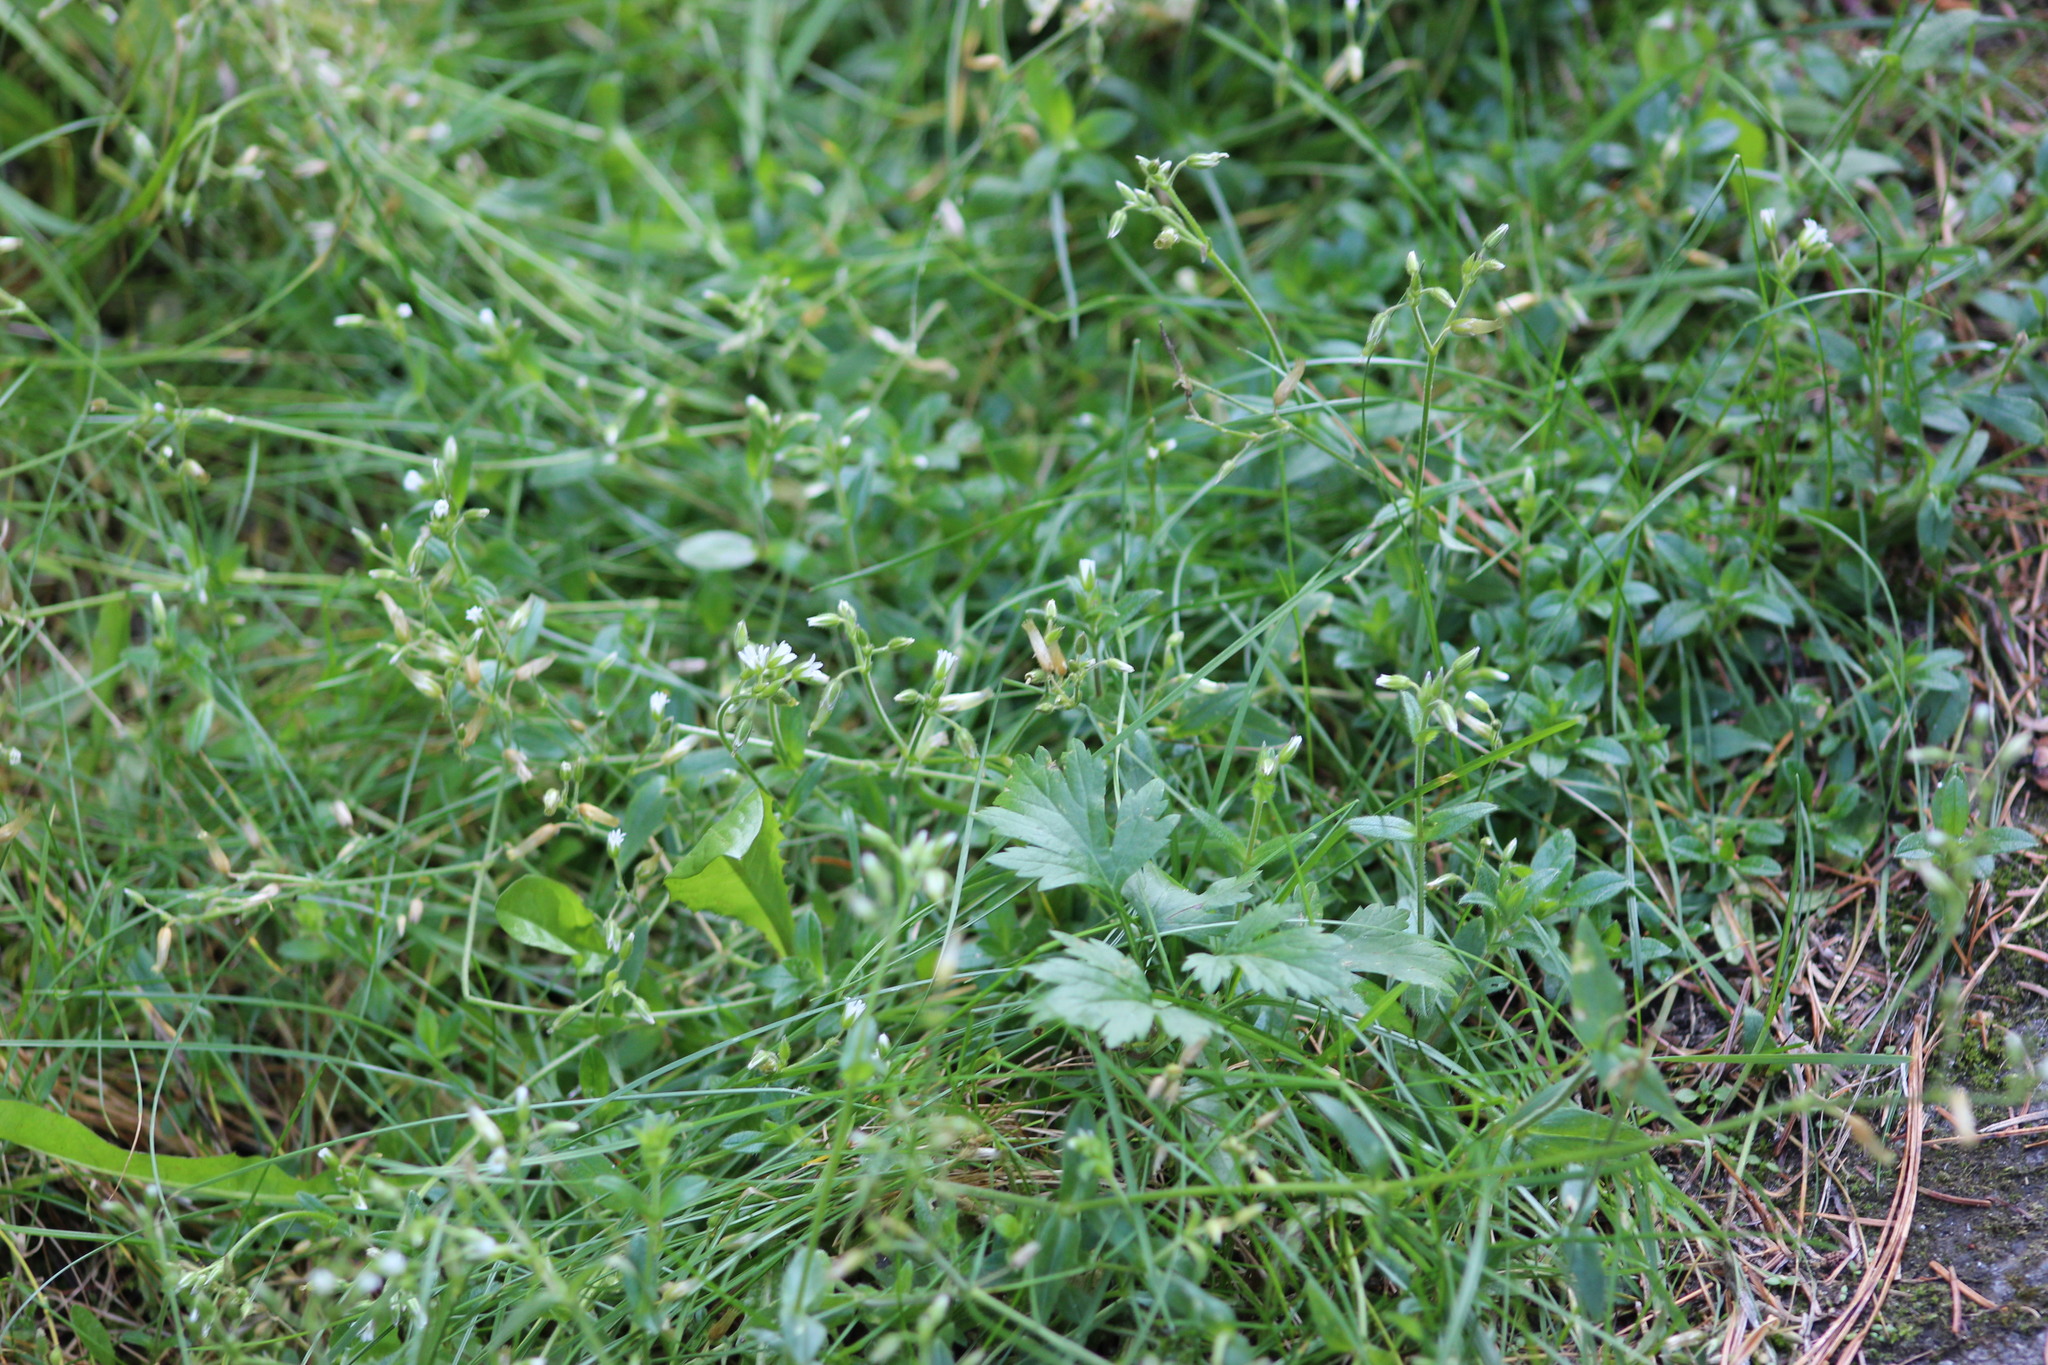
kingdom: Plantae
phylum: Tracheophyta
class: Magnoliopsida
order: Caryophyllales
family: Caryophyllaceae
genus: Cerastium
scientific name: Cerastium holosteoides
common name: Big chickweed
